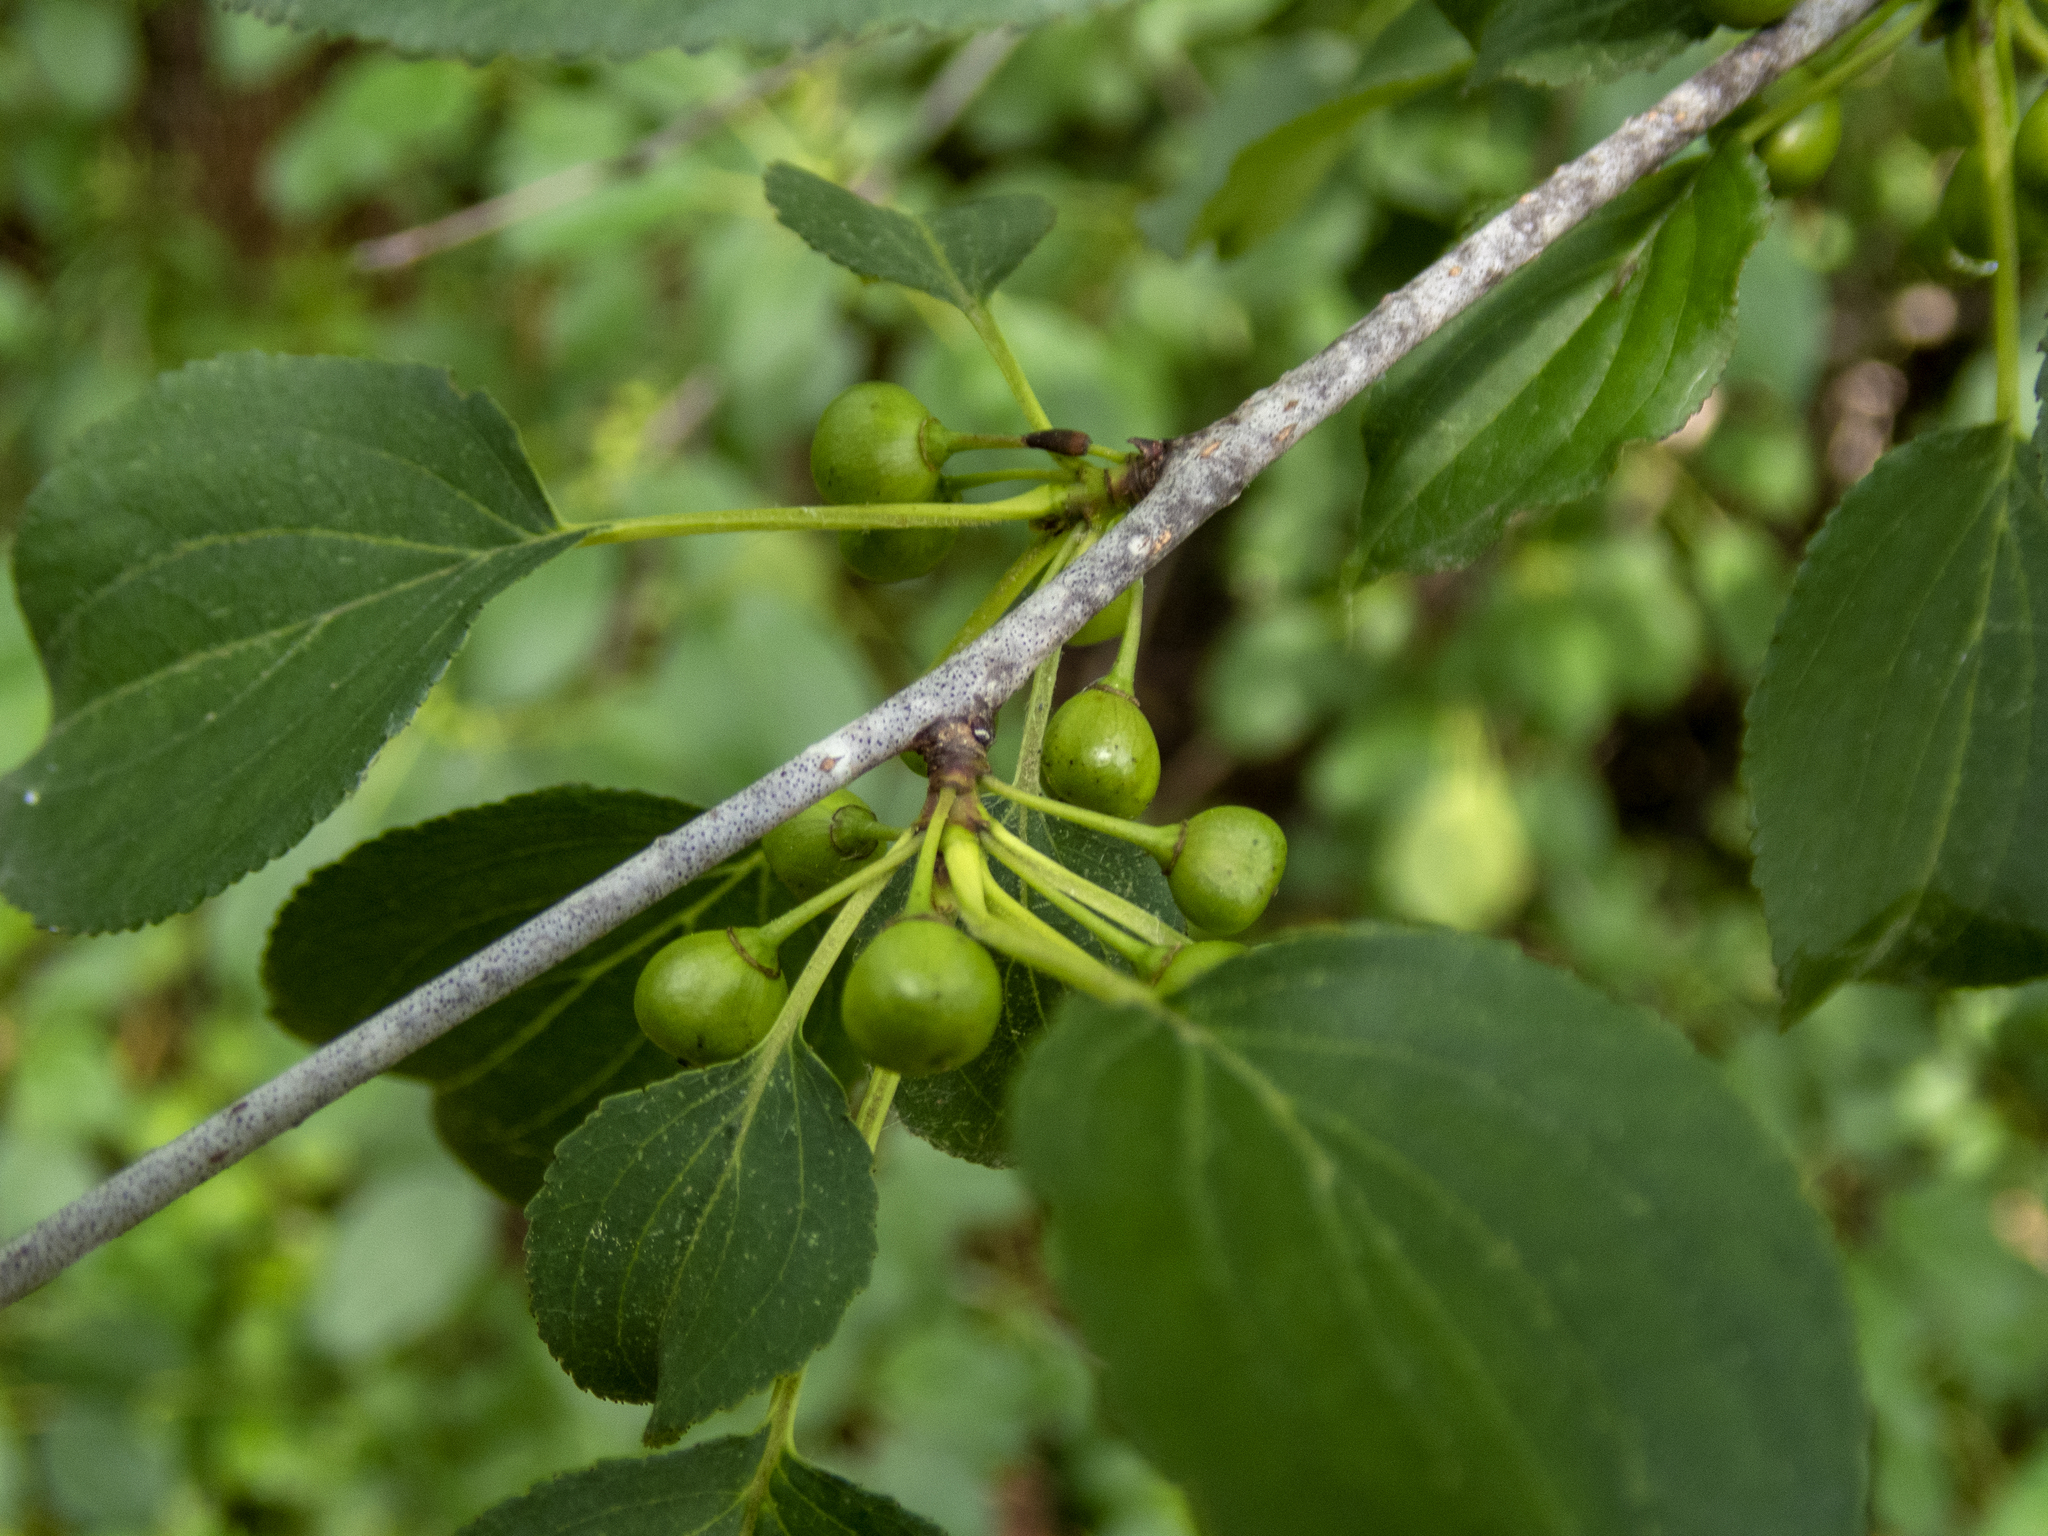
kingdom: Plantae
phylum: Tracheophyta
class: Magnoliopsida
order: Rosales
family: Rhamnaceae
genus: Rhamnus
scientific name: Rhamnus cathartica
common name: Common buckthorn
